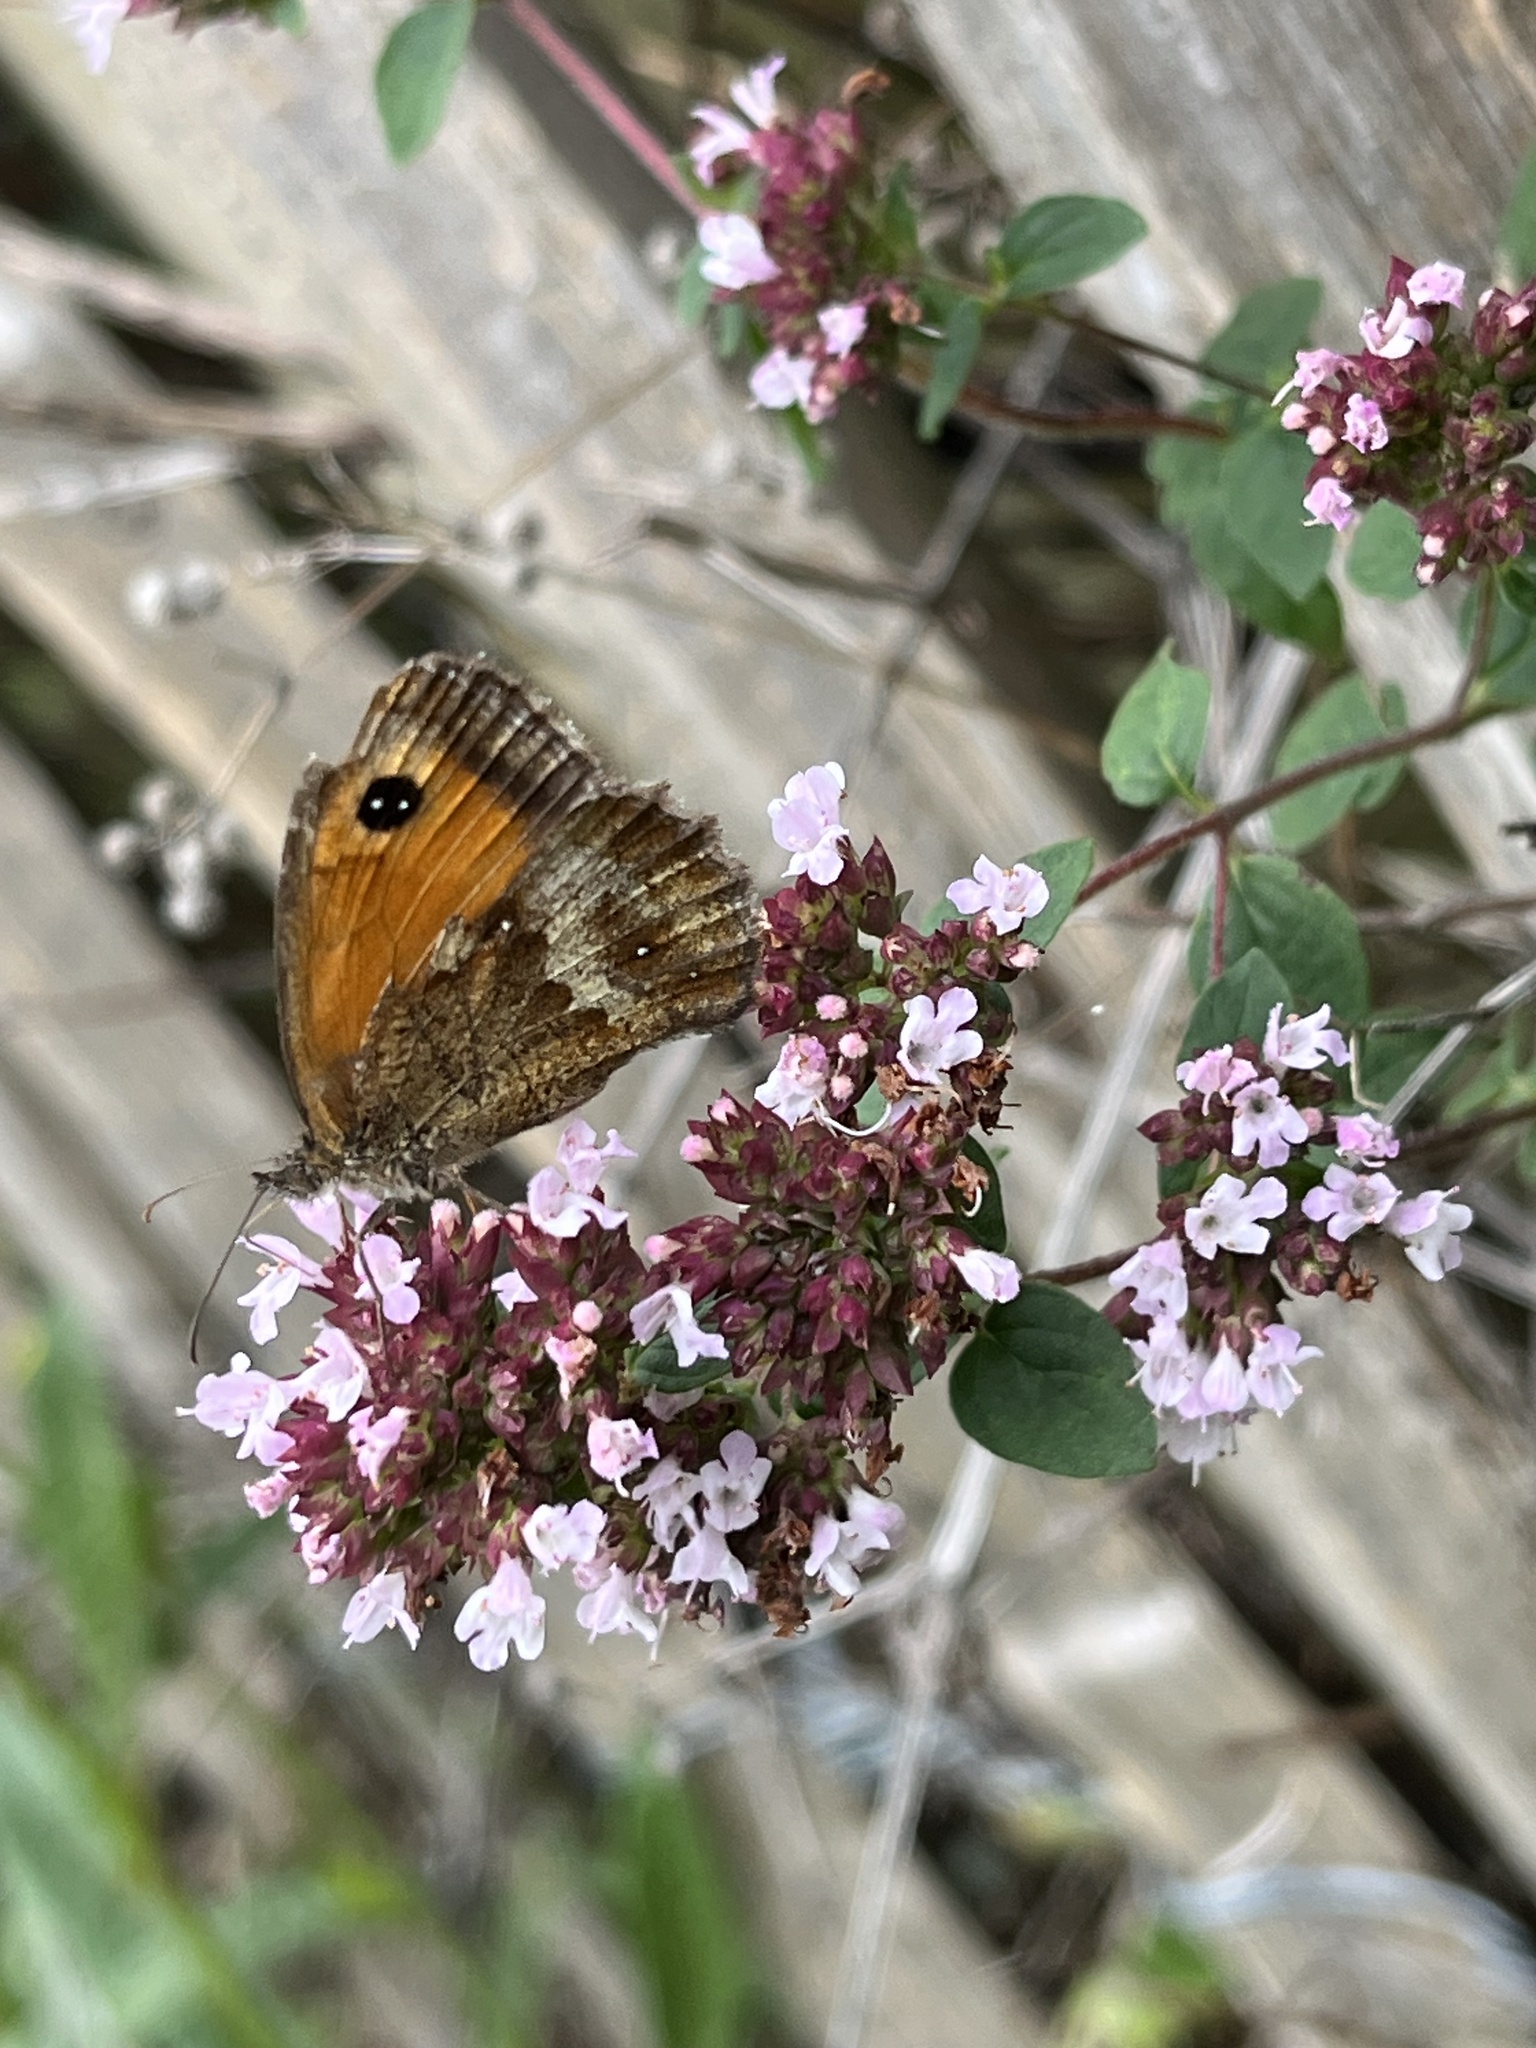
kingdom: Animalia
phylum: Arthropoda
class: Insecta
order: Lepidoptera
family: Nymphalidae
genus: Pyronia
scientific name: Pyronia tithonus
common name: Gatekeeper
